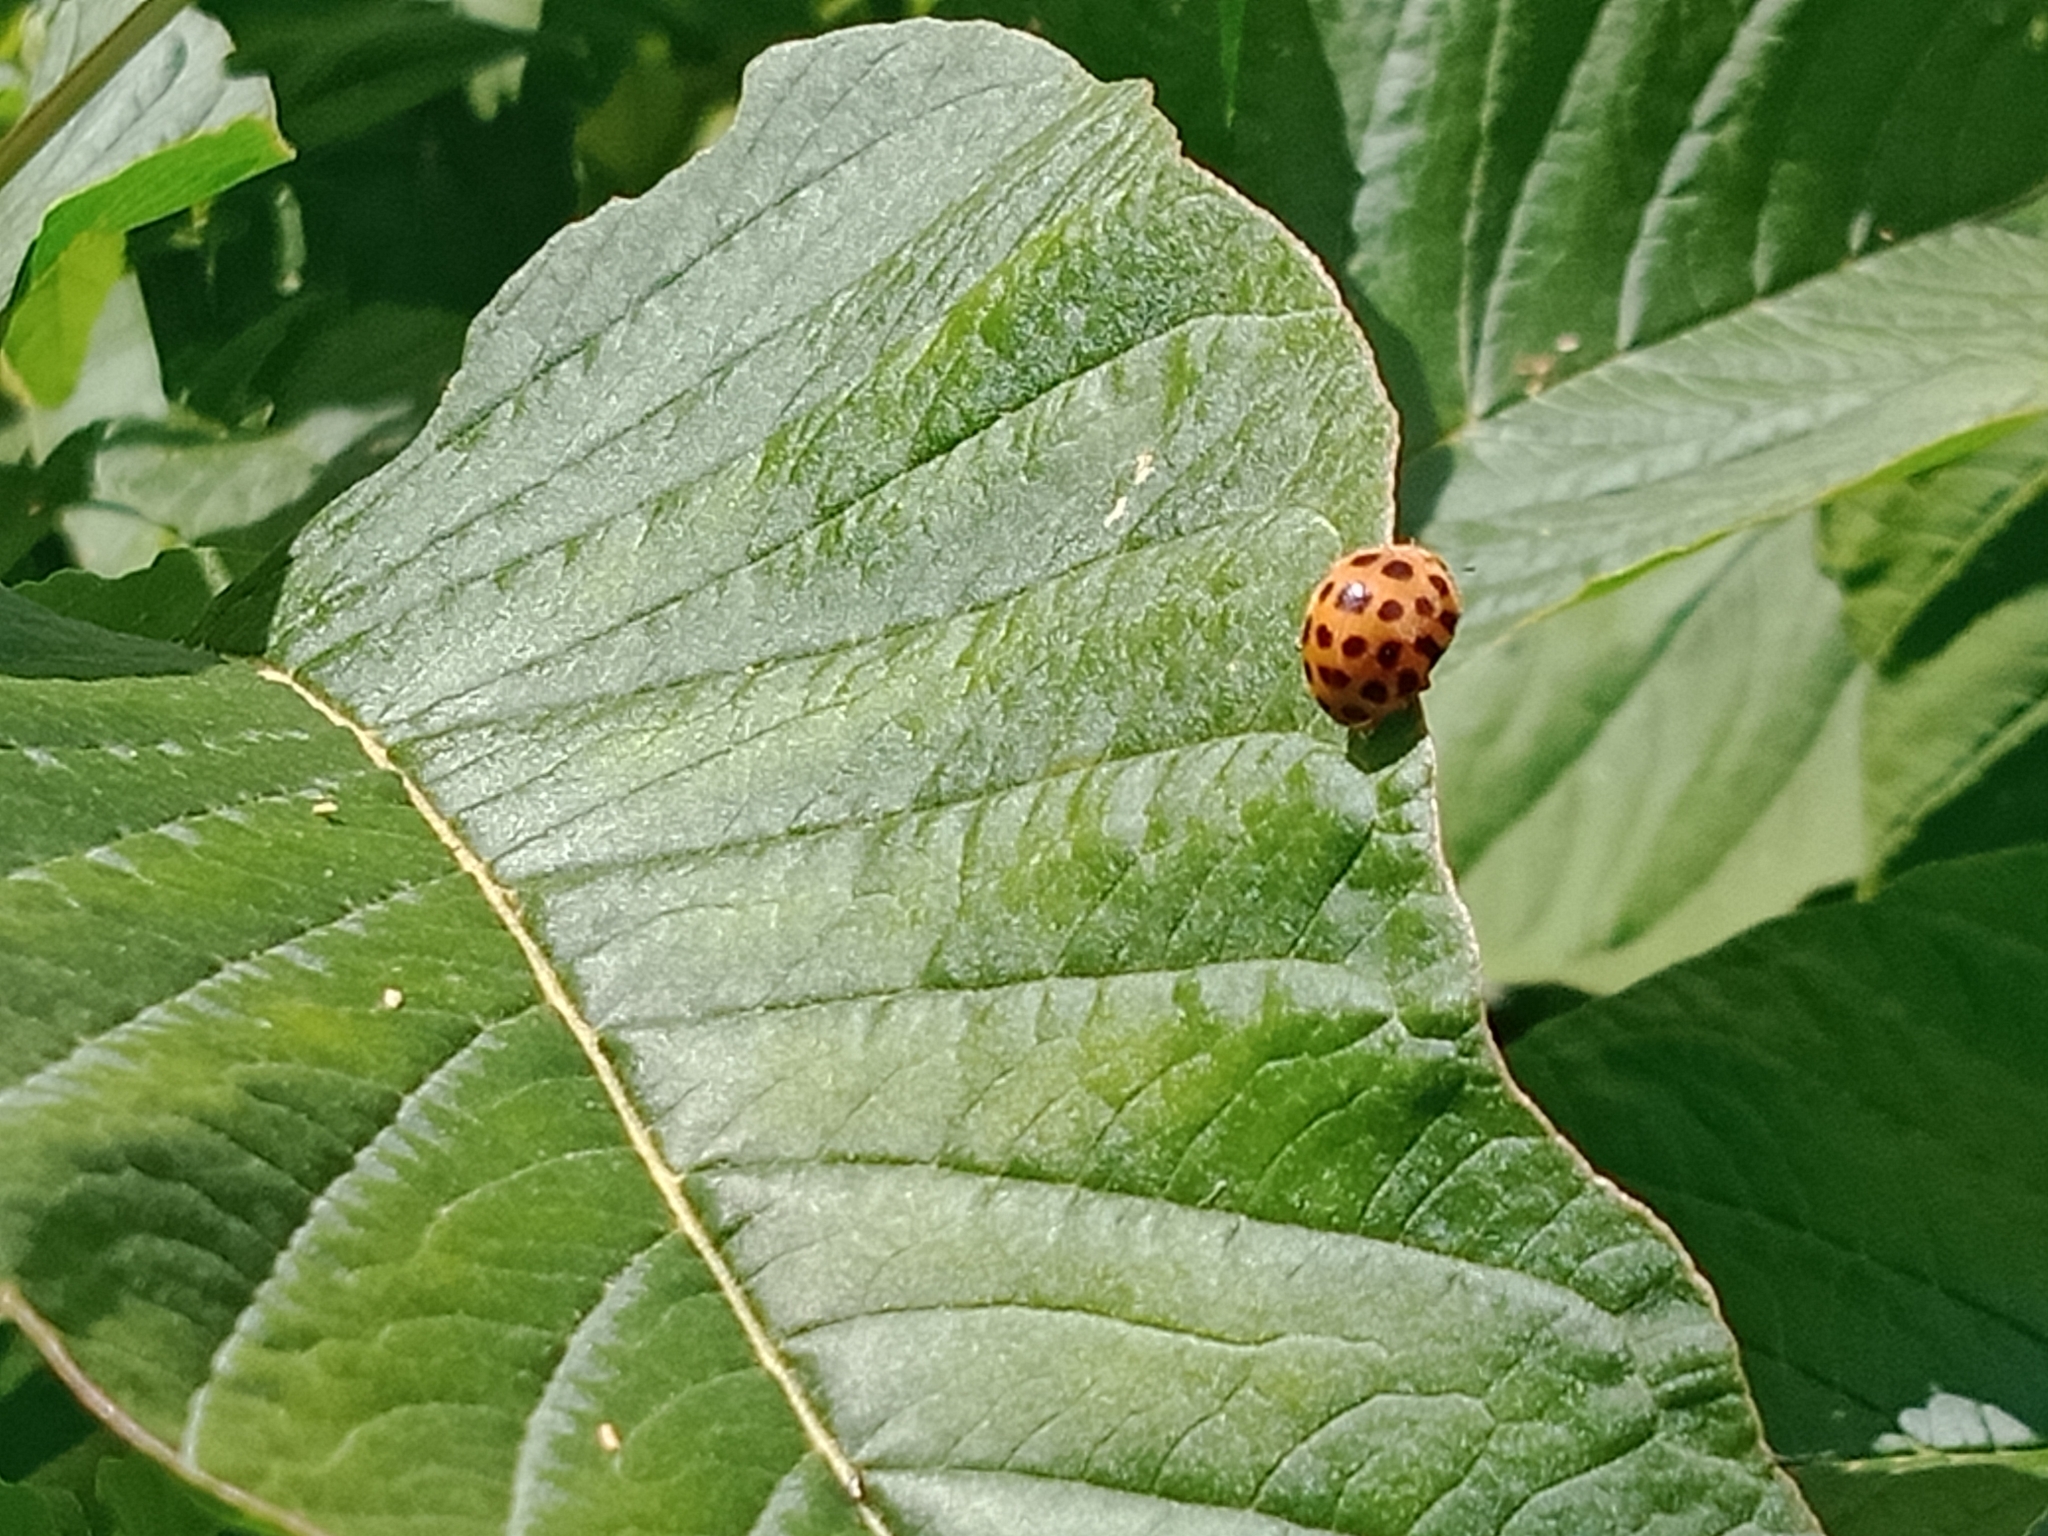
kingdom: Animalia
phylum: Arthropoda
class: Insecta
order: Coleoptera
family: Coccinellidae
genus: Henosepilachna
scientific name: Henosepilachna vigintioctopunctata
